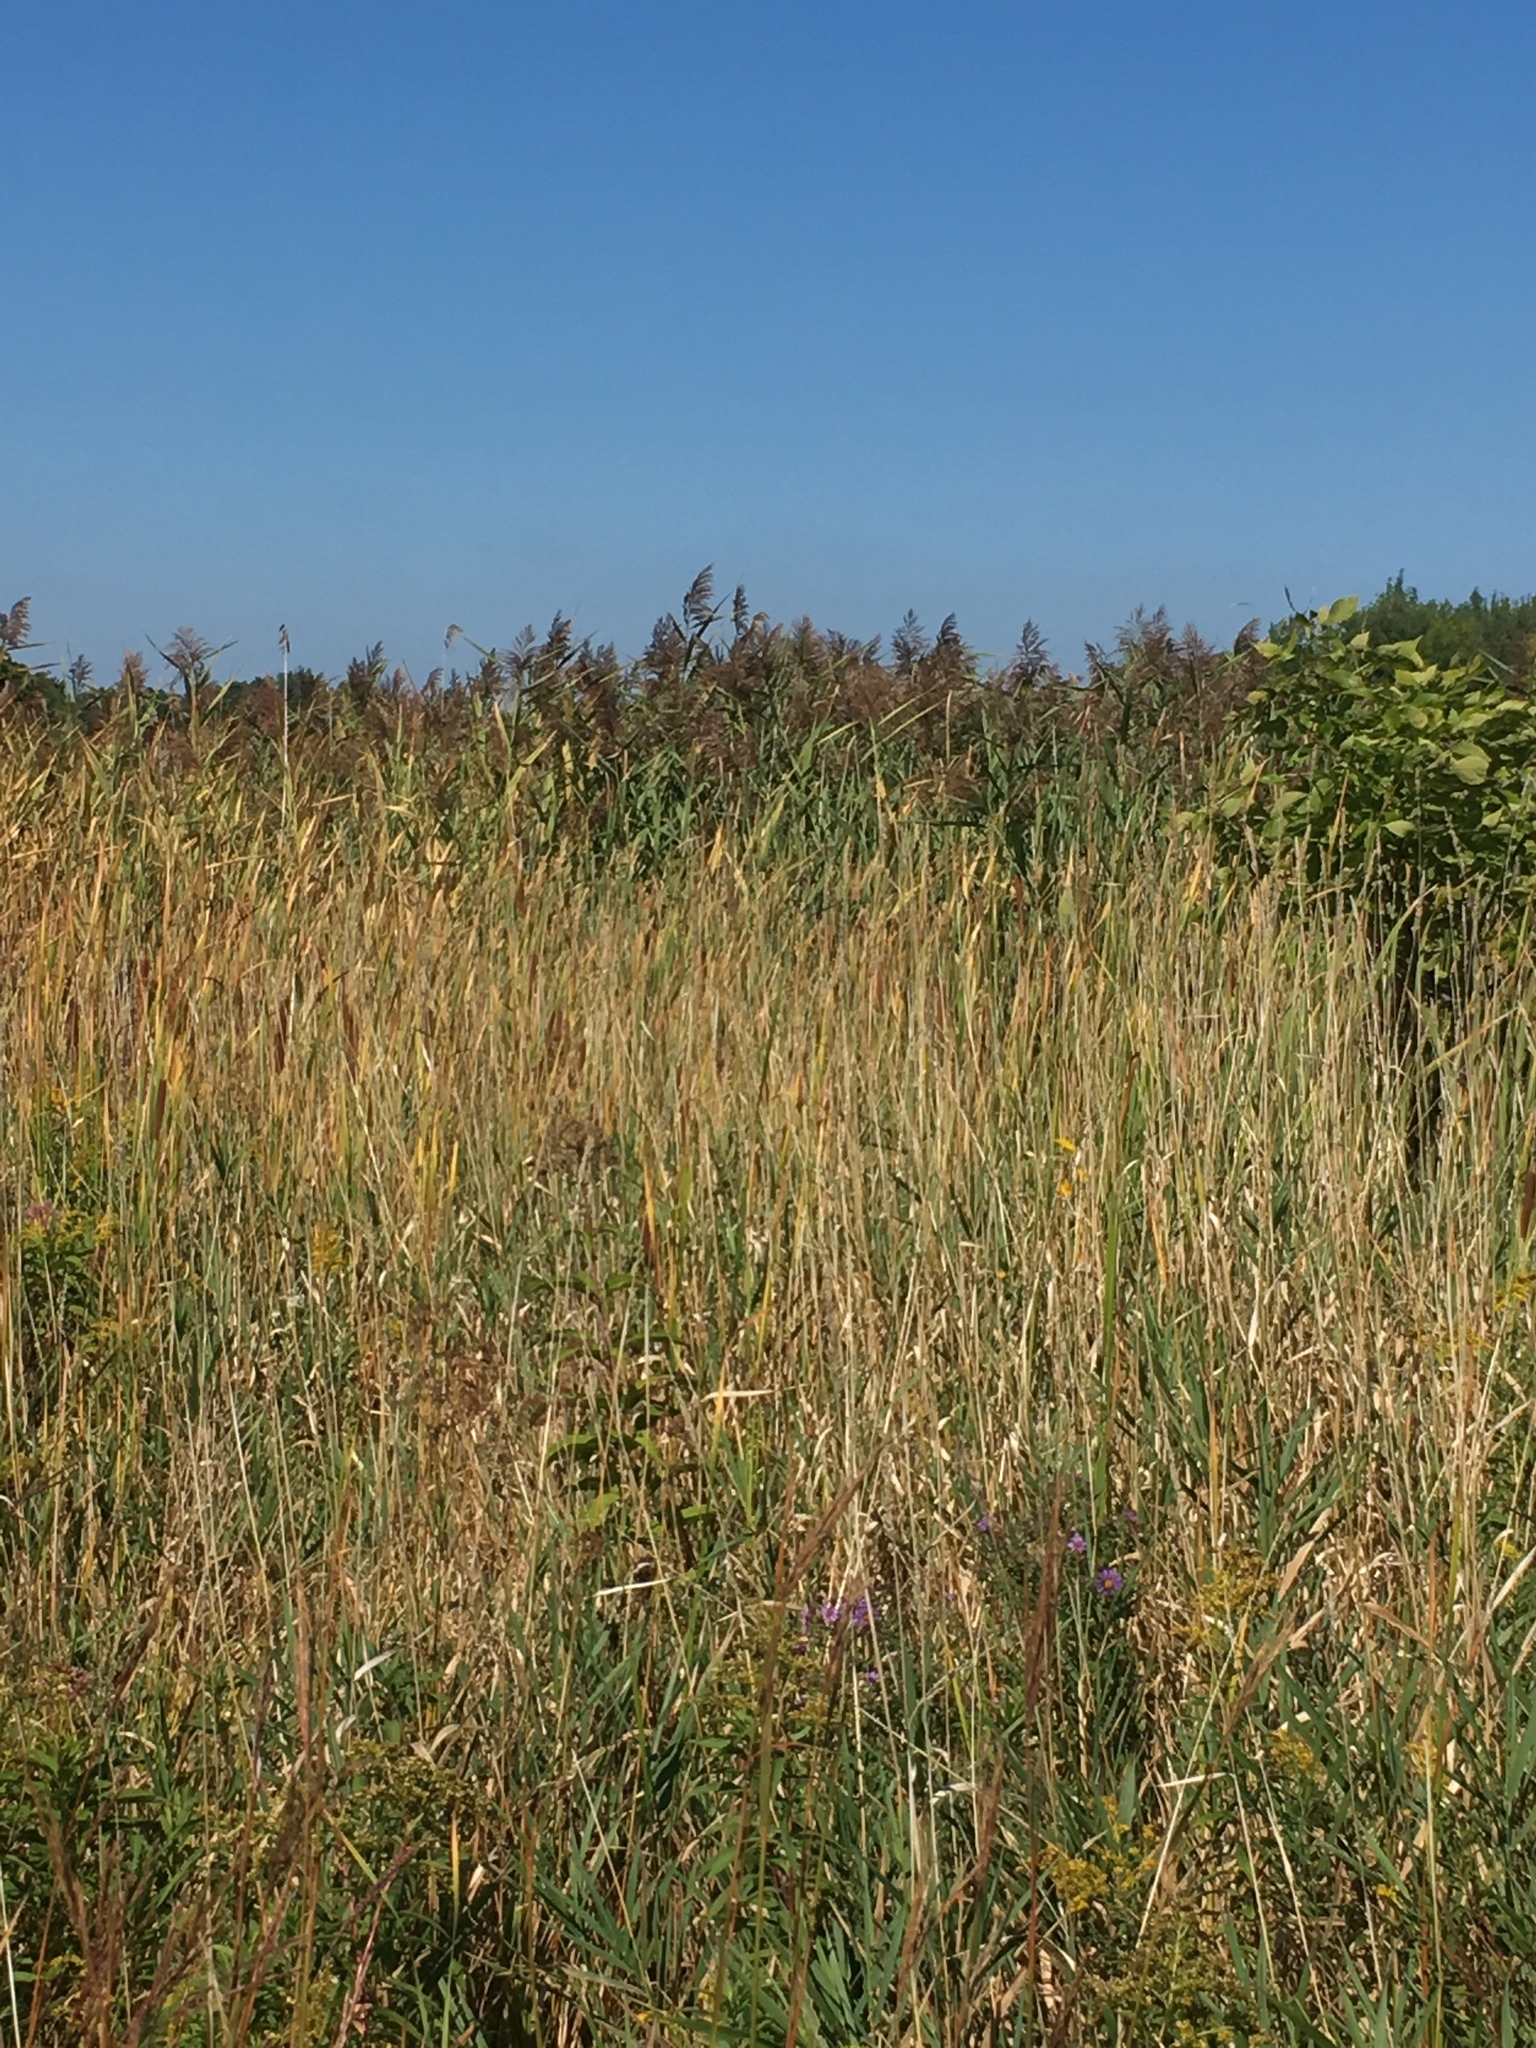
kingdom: Plantae
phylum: Tracheophyta
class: Liliopsida
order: Poales
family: Poaceae
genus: Phragmites
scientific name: Phragmites australis
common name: Common reed
